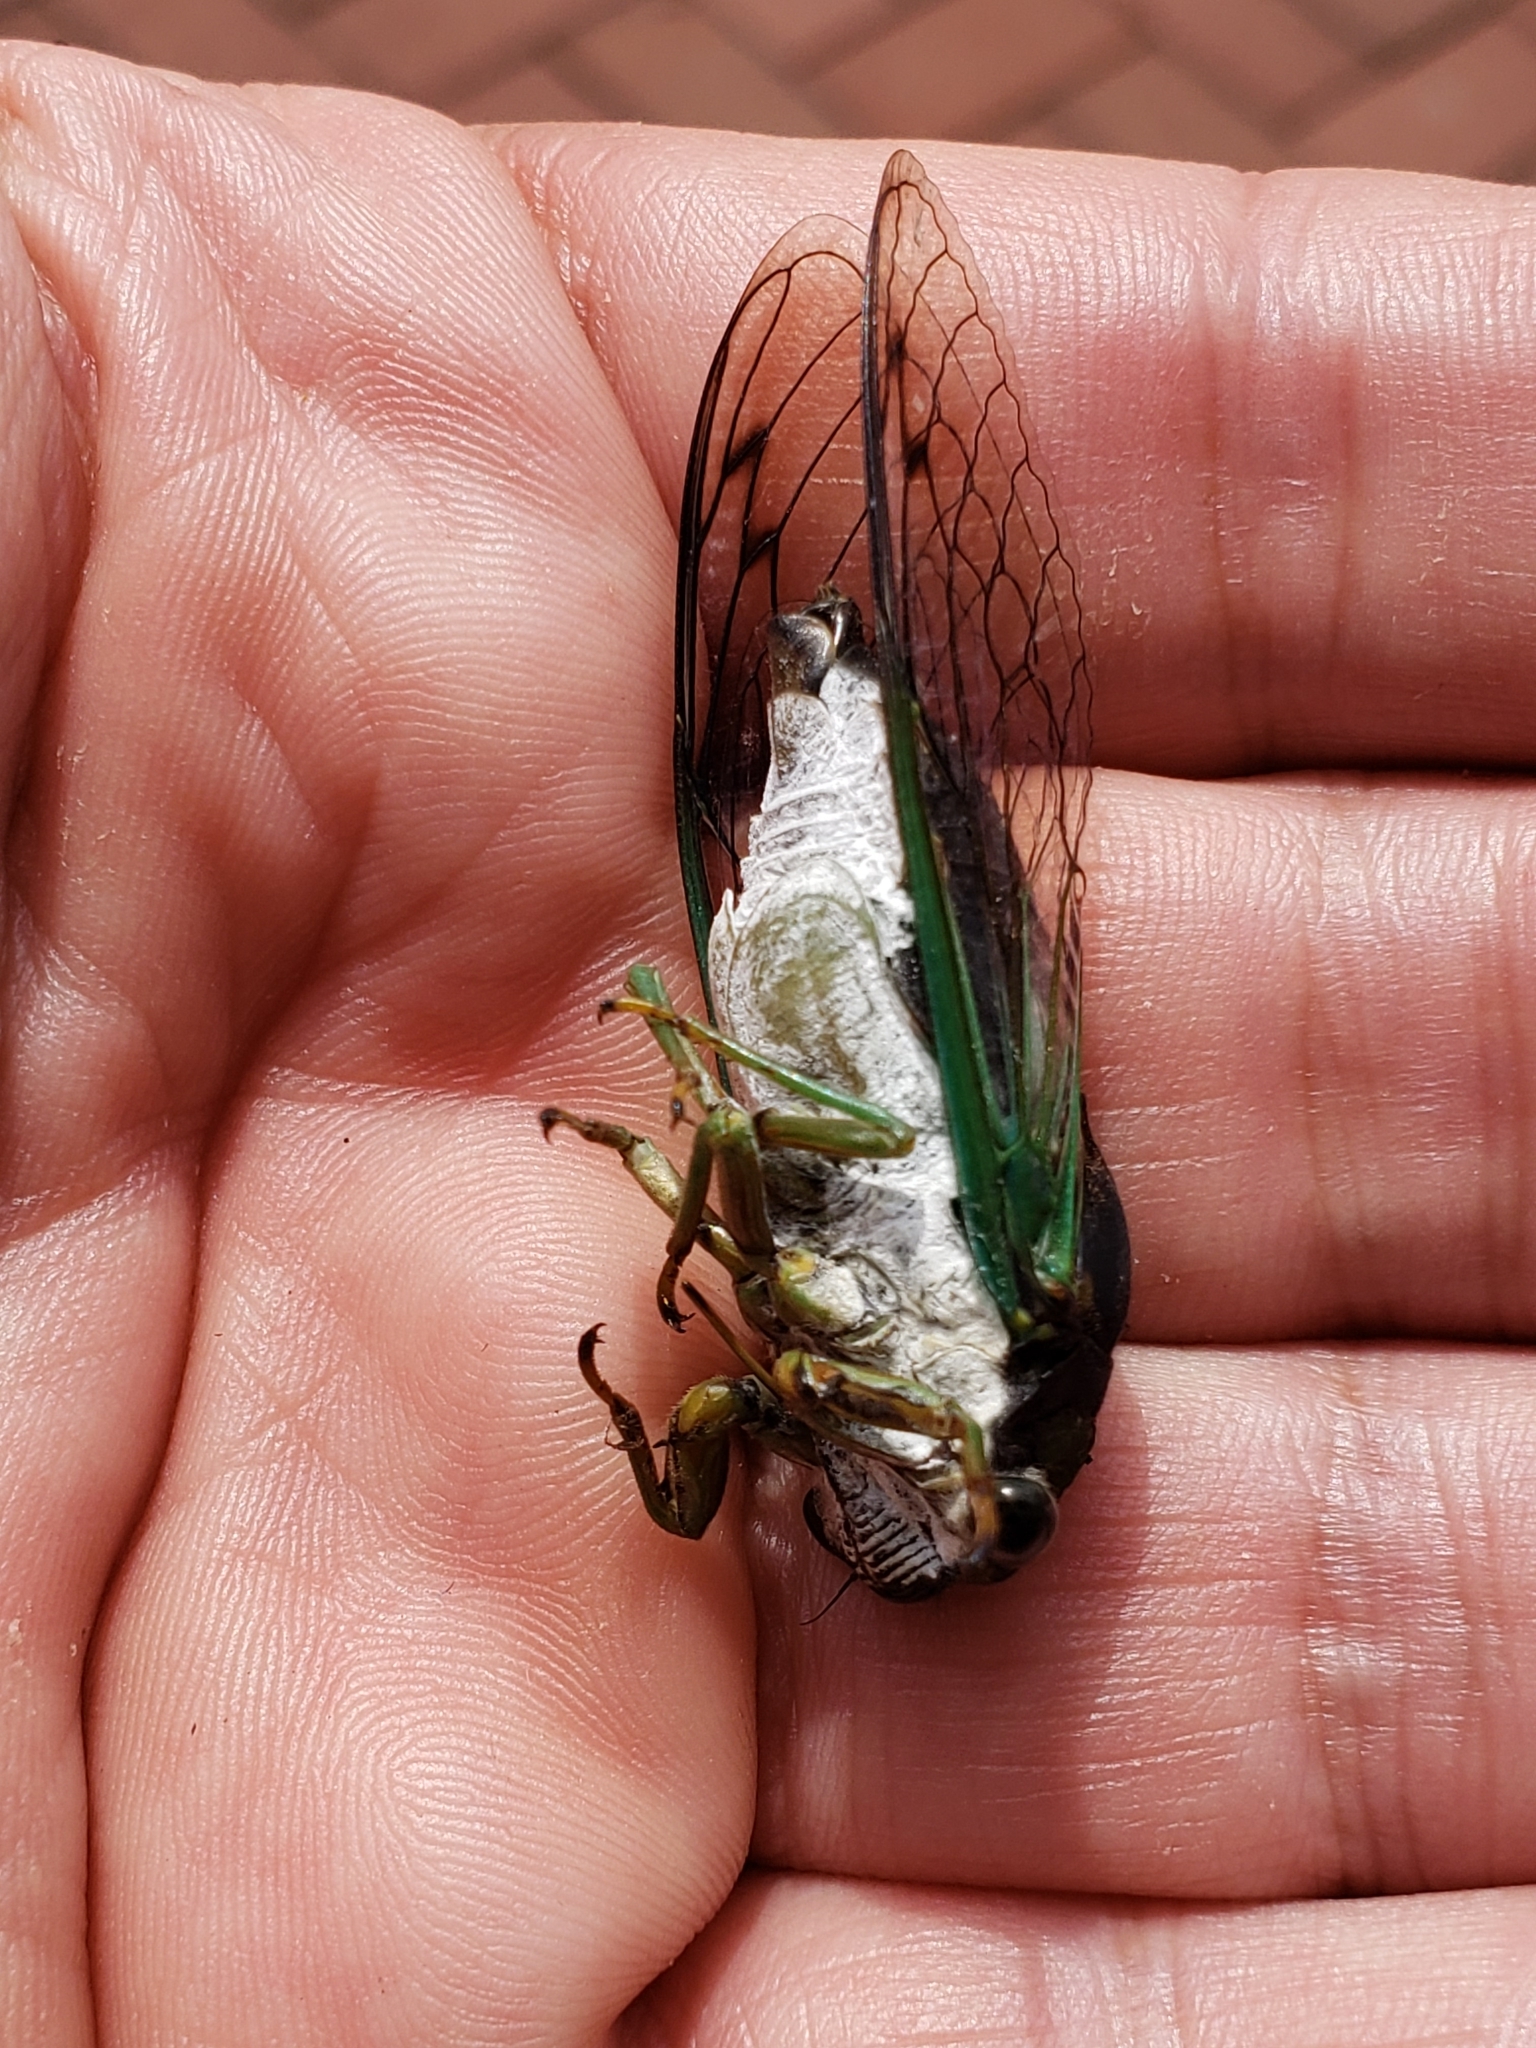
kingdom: Animalia
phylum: Arthropoda
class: Insecta
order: Hemiptera
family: Cicadidae
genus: Neotibicen
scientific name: Neotibicen tibicen
